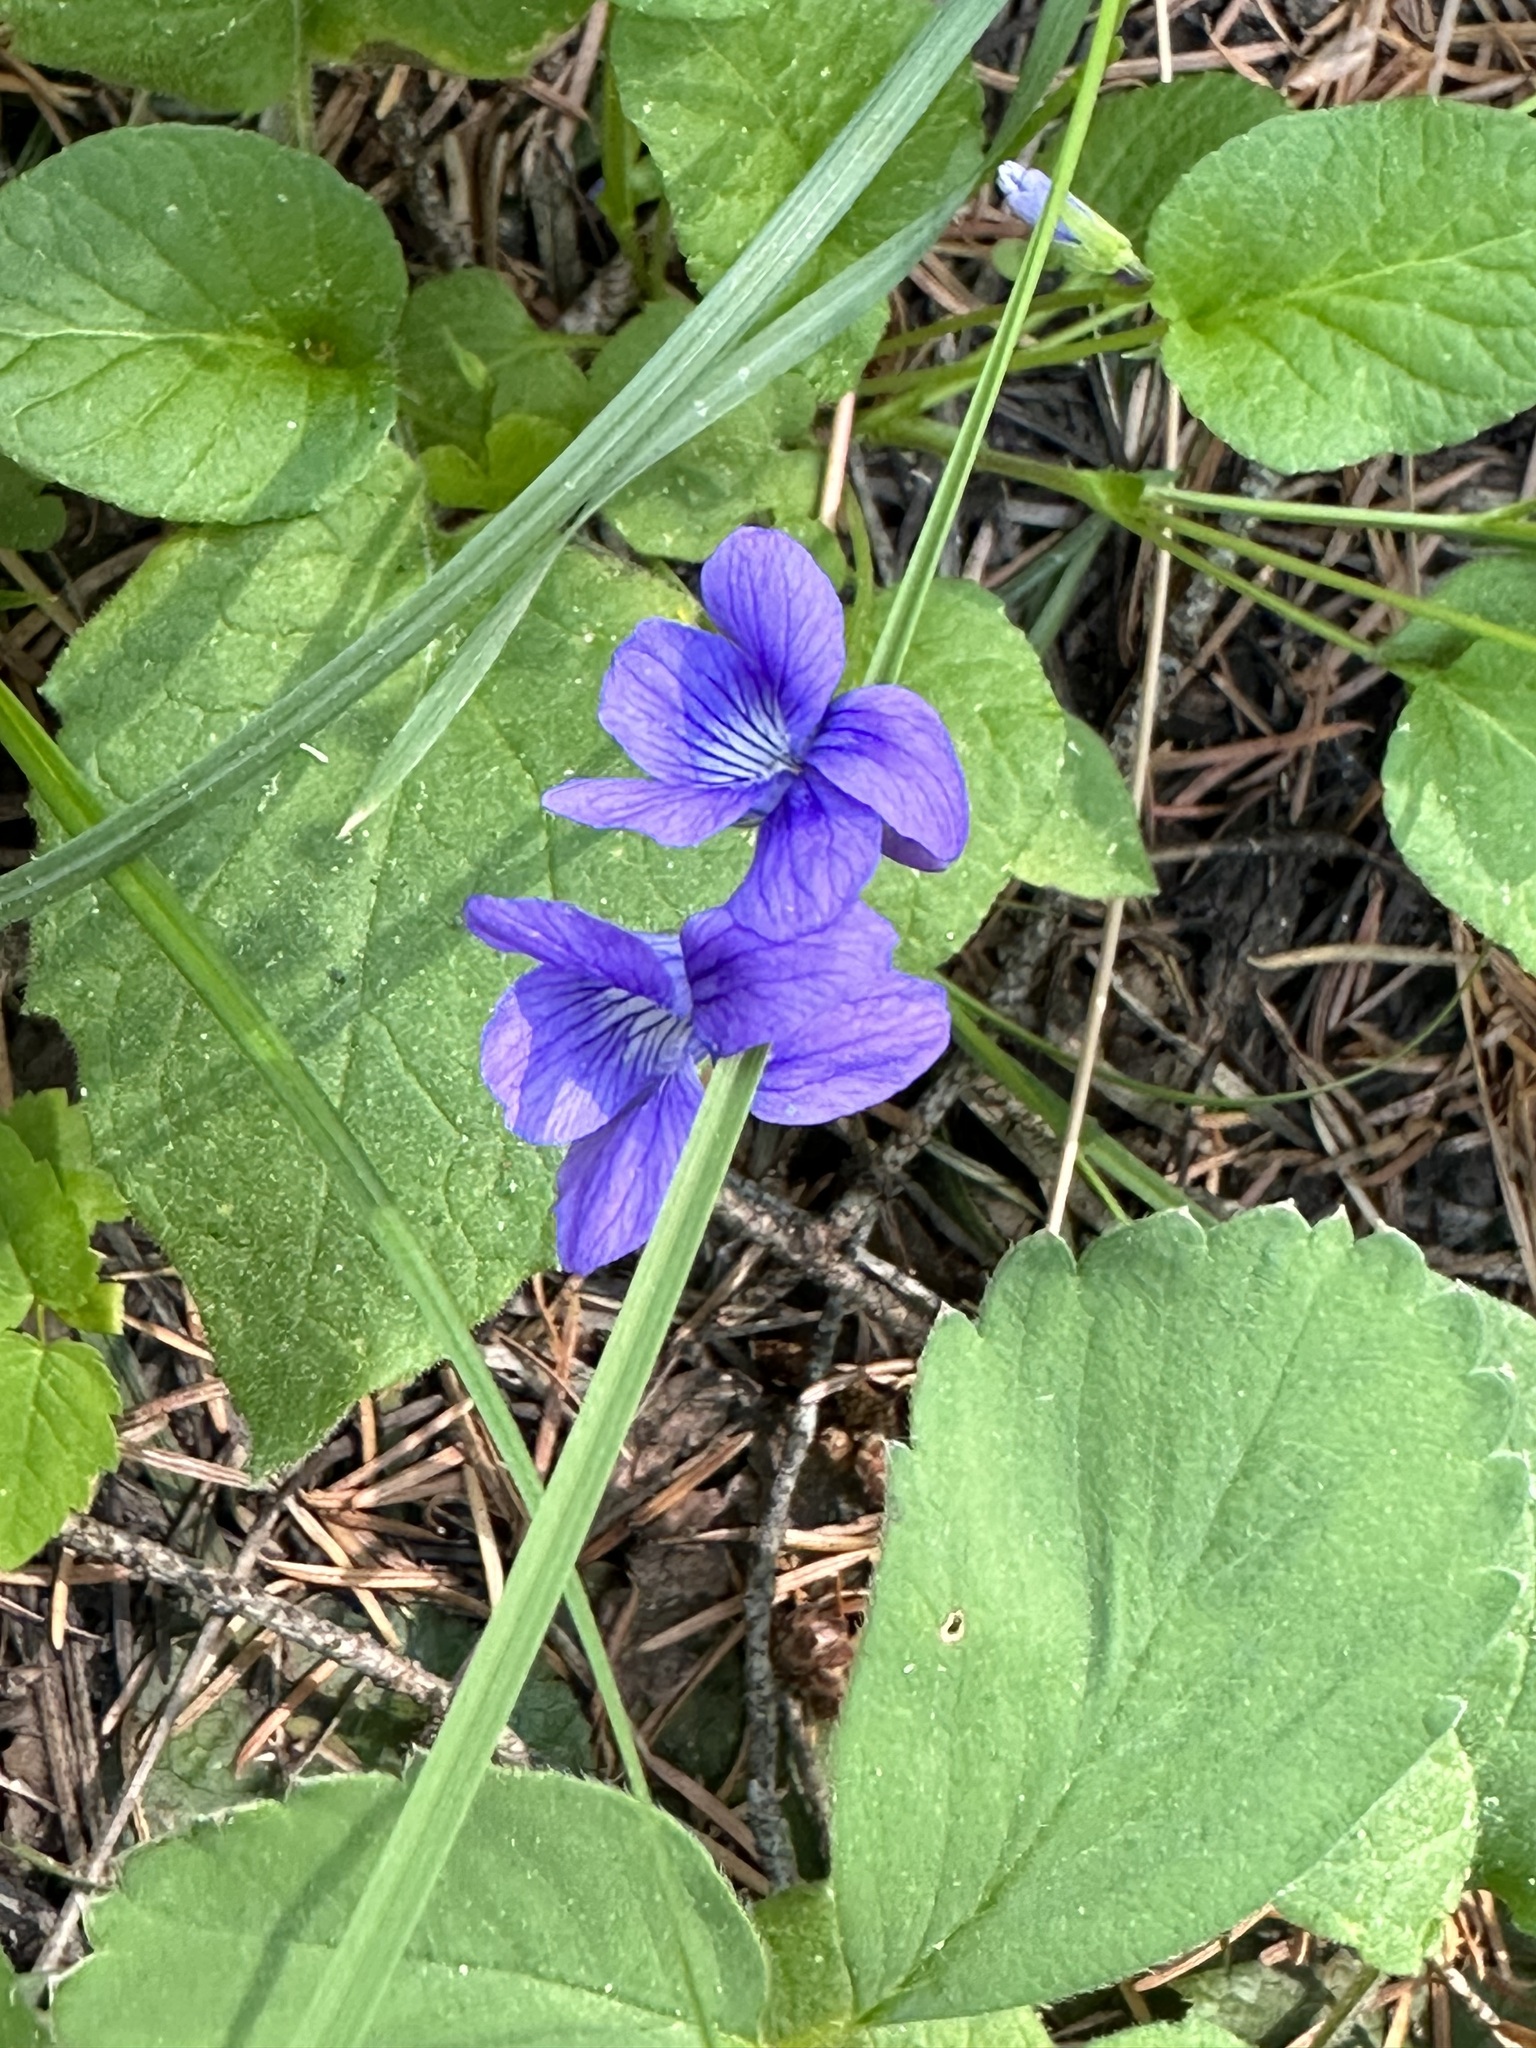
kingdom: Plantae
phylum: Tracheophyta
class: Magnoliopsida
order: Malpighiales
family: Violaceae
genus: Viola
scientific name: Viola adunca
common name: Sand violet
